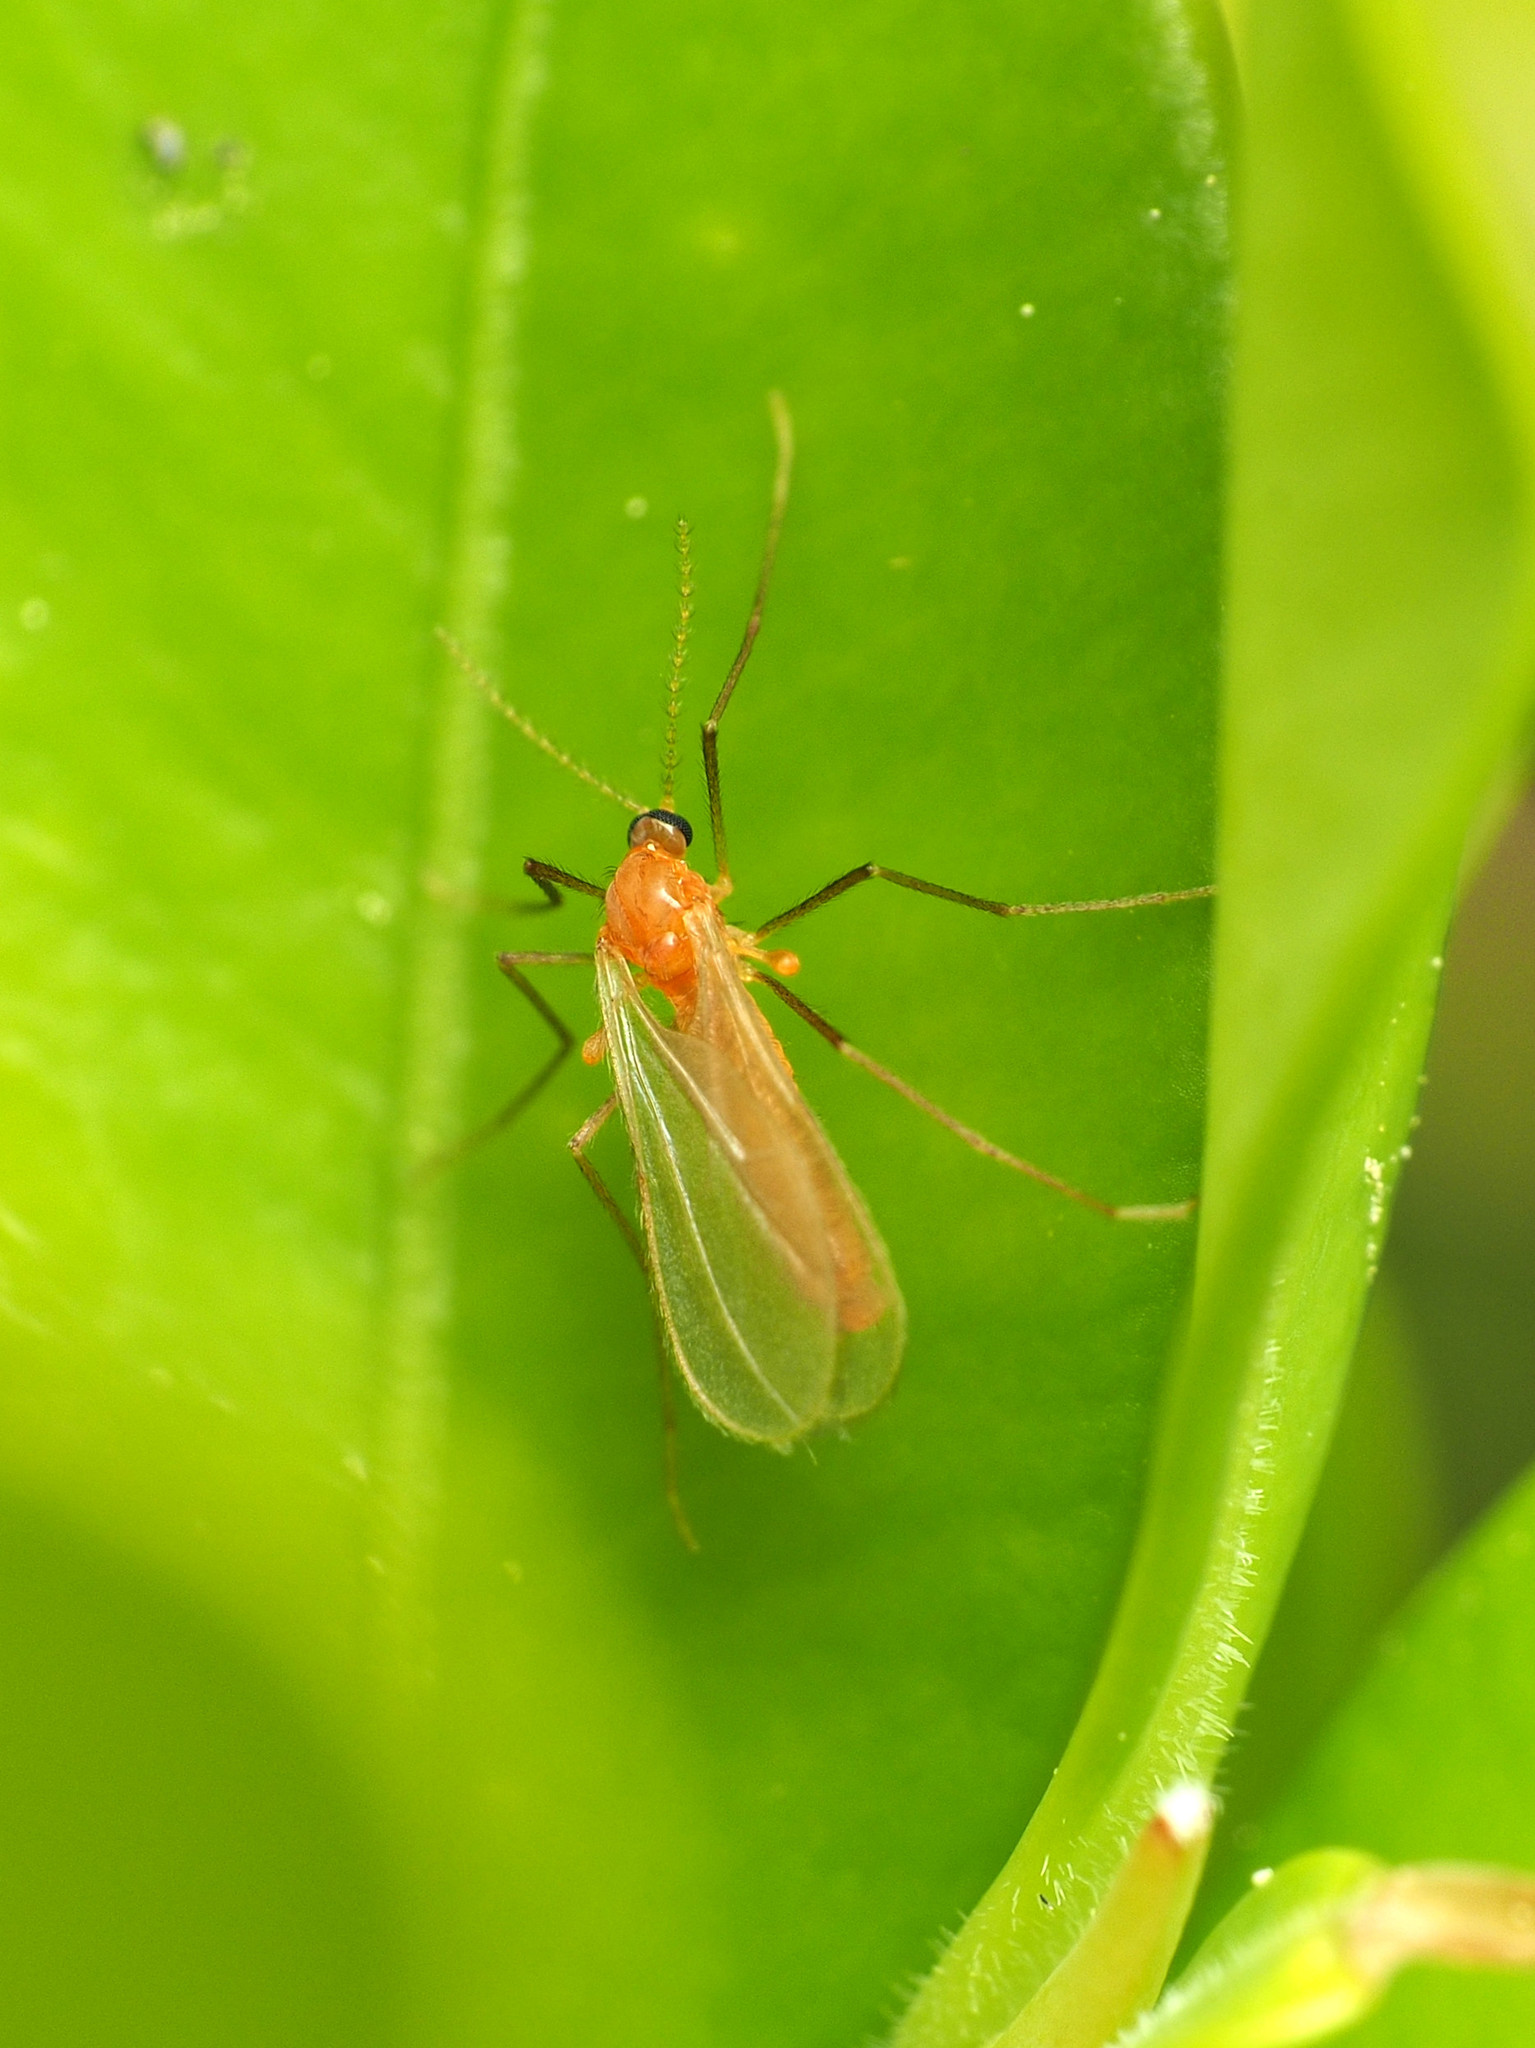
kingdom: Animalia
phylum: Arthropoda
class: Insecta
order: Diptera
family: Cecidomyiidae
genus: Monarthropalpus
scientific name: Monarthropalpus flavus
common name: Boxwood leafminer
